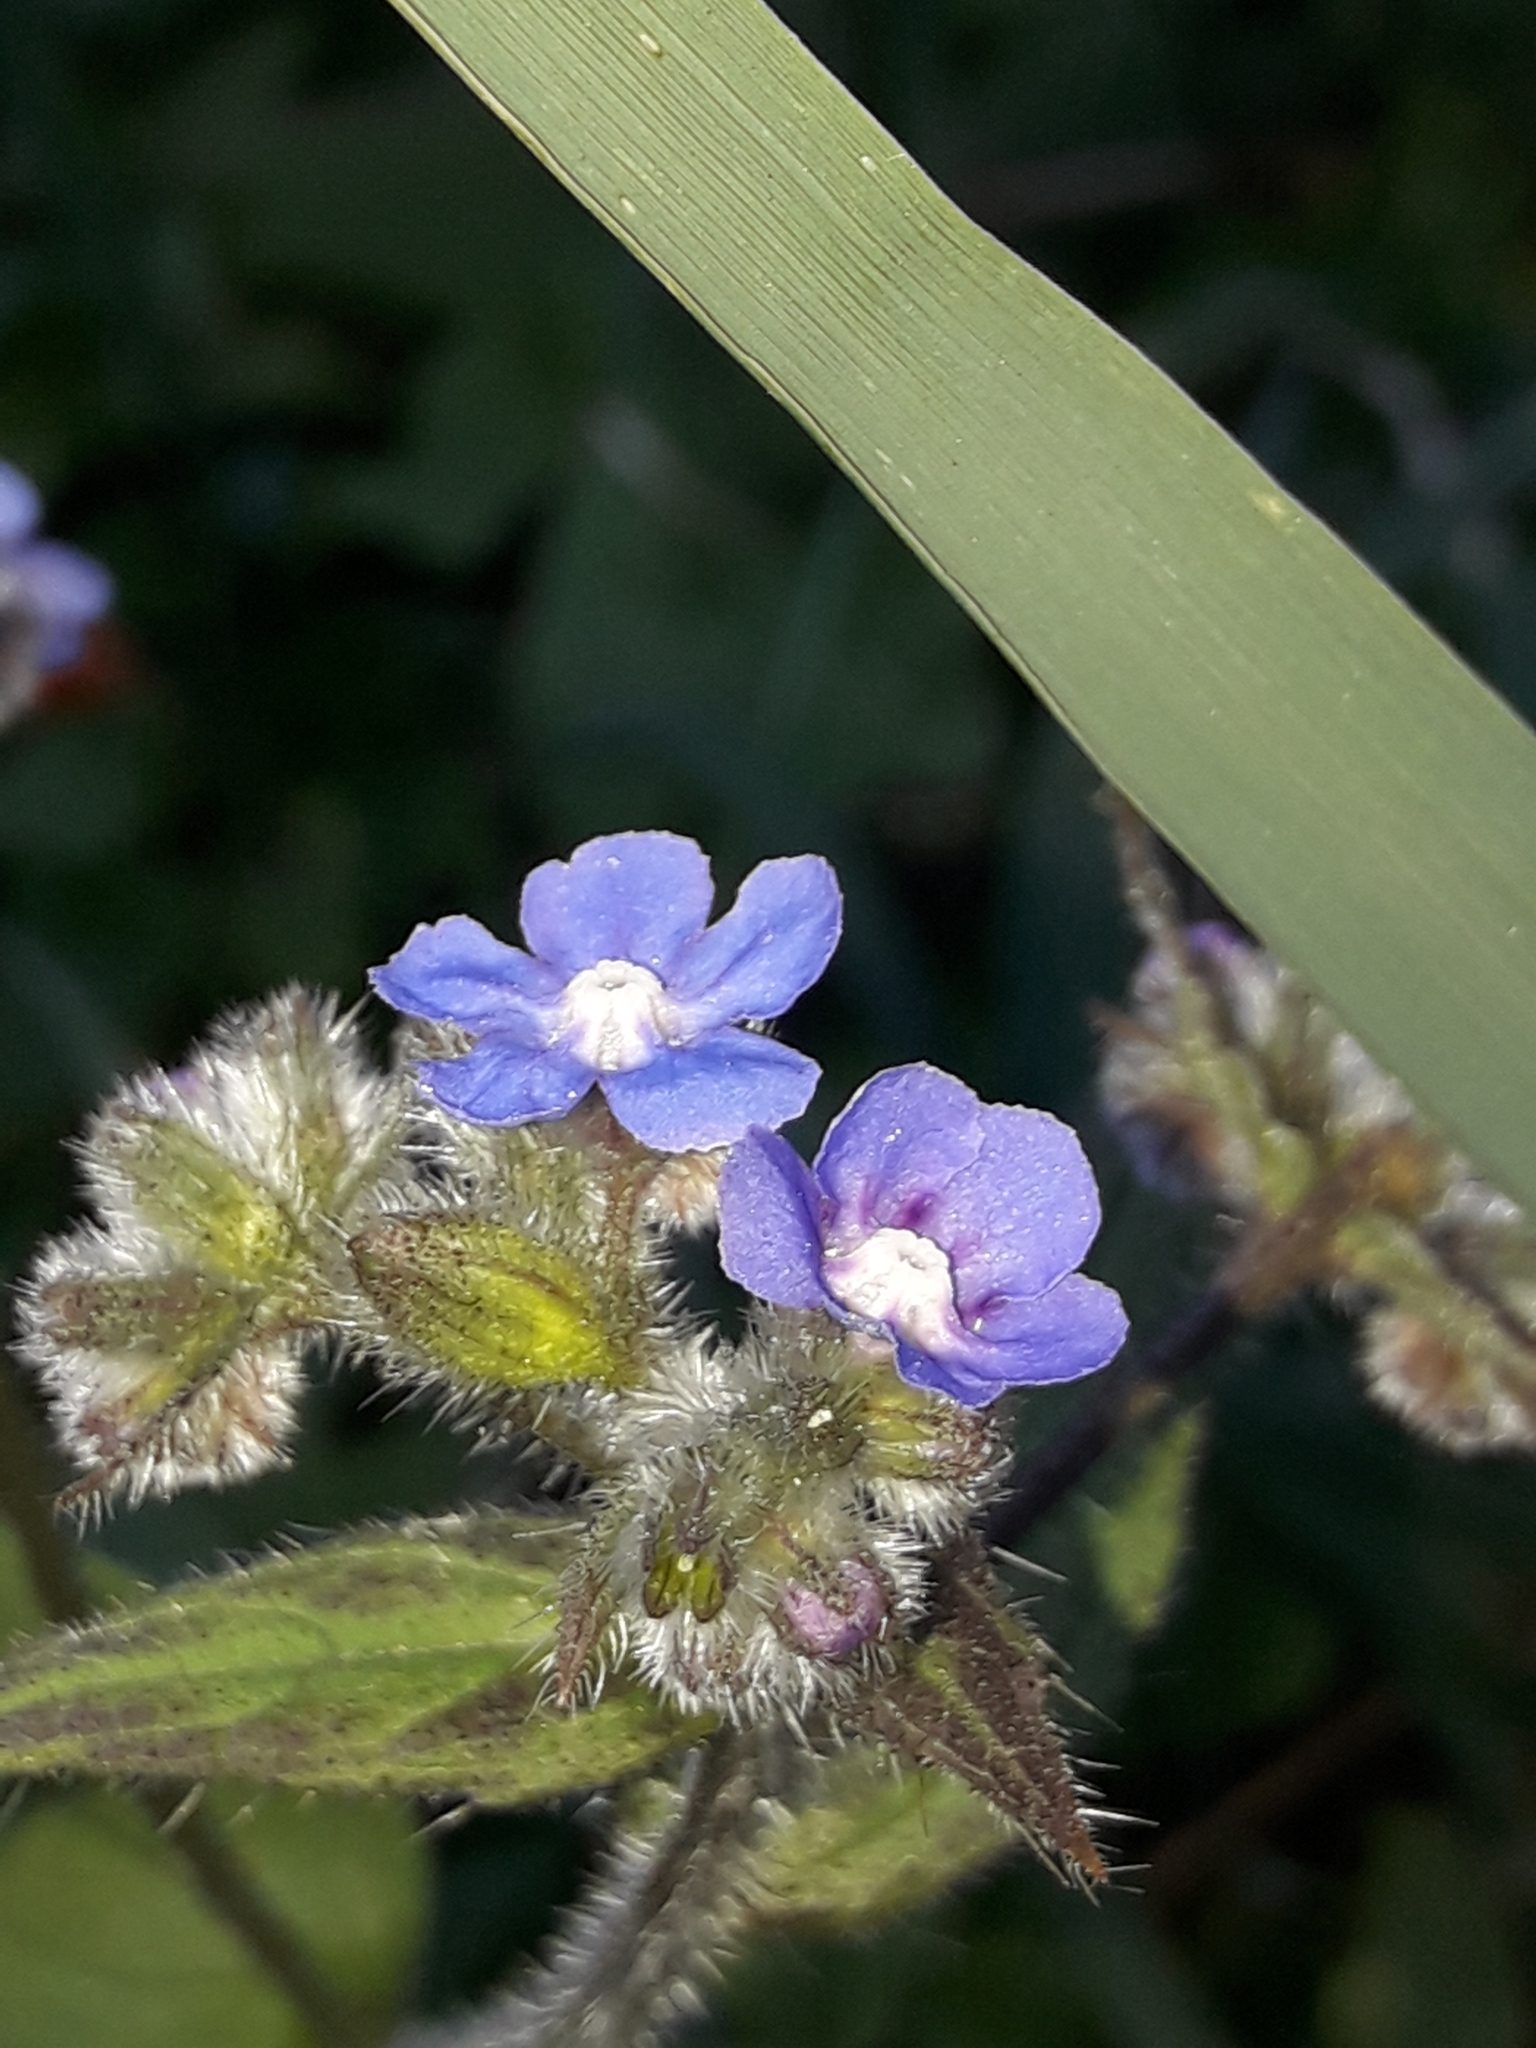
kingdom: Plantae
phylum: Tracheophyta
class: Magnoliopsida
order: Boraginales
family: Boraginaceae
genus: Pentaglottis
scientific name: Pentaglottis sempervirens
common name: Green alkanet
